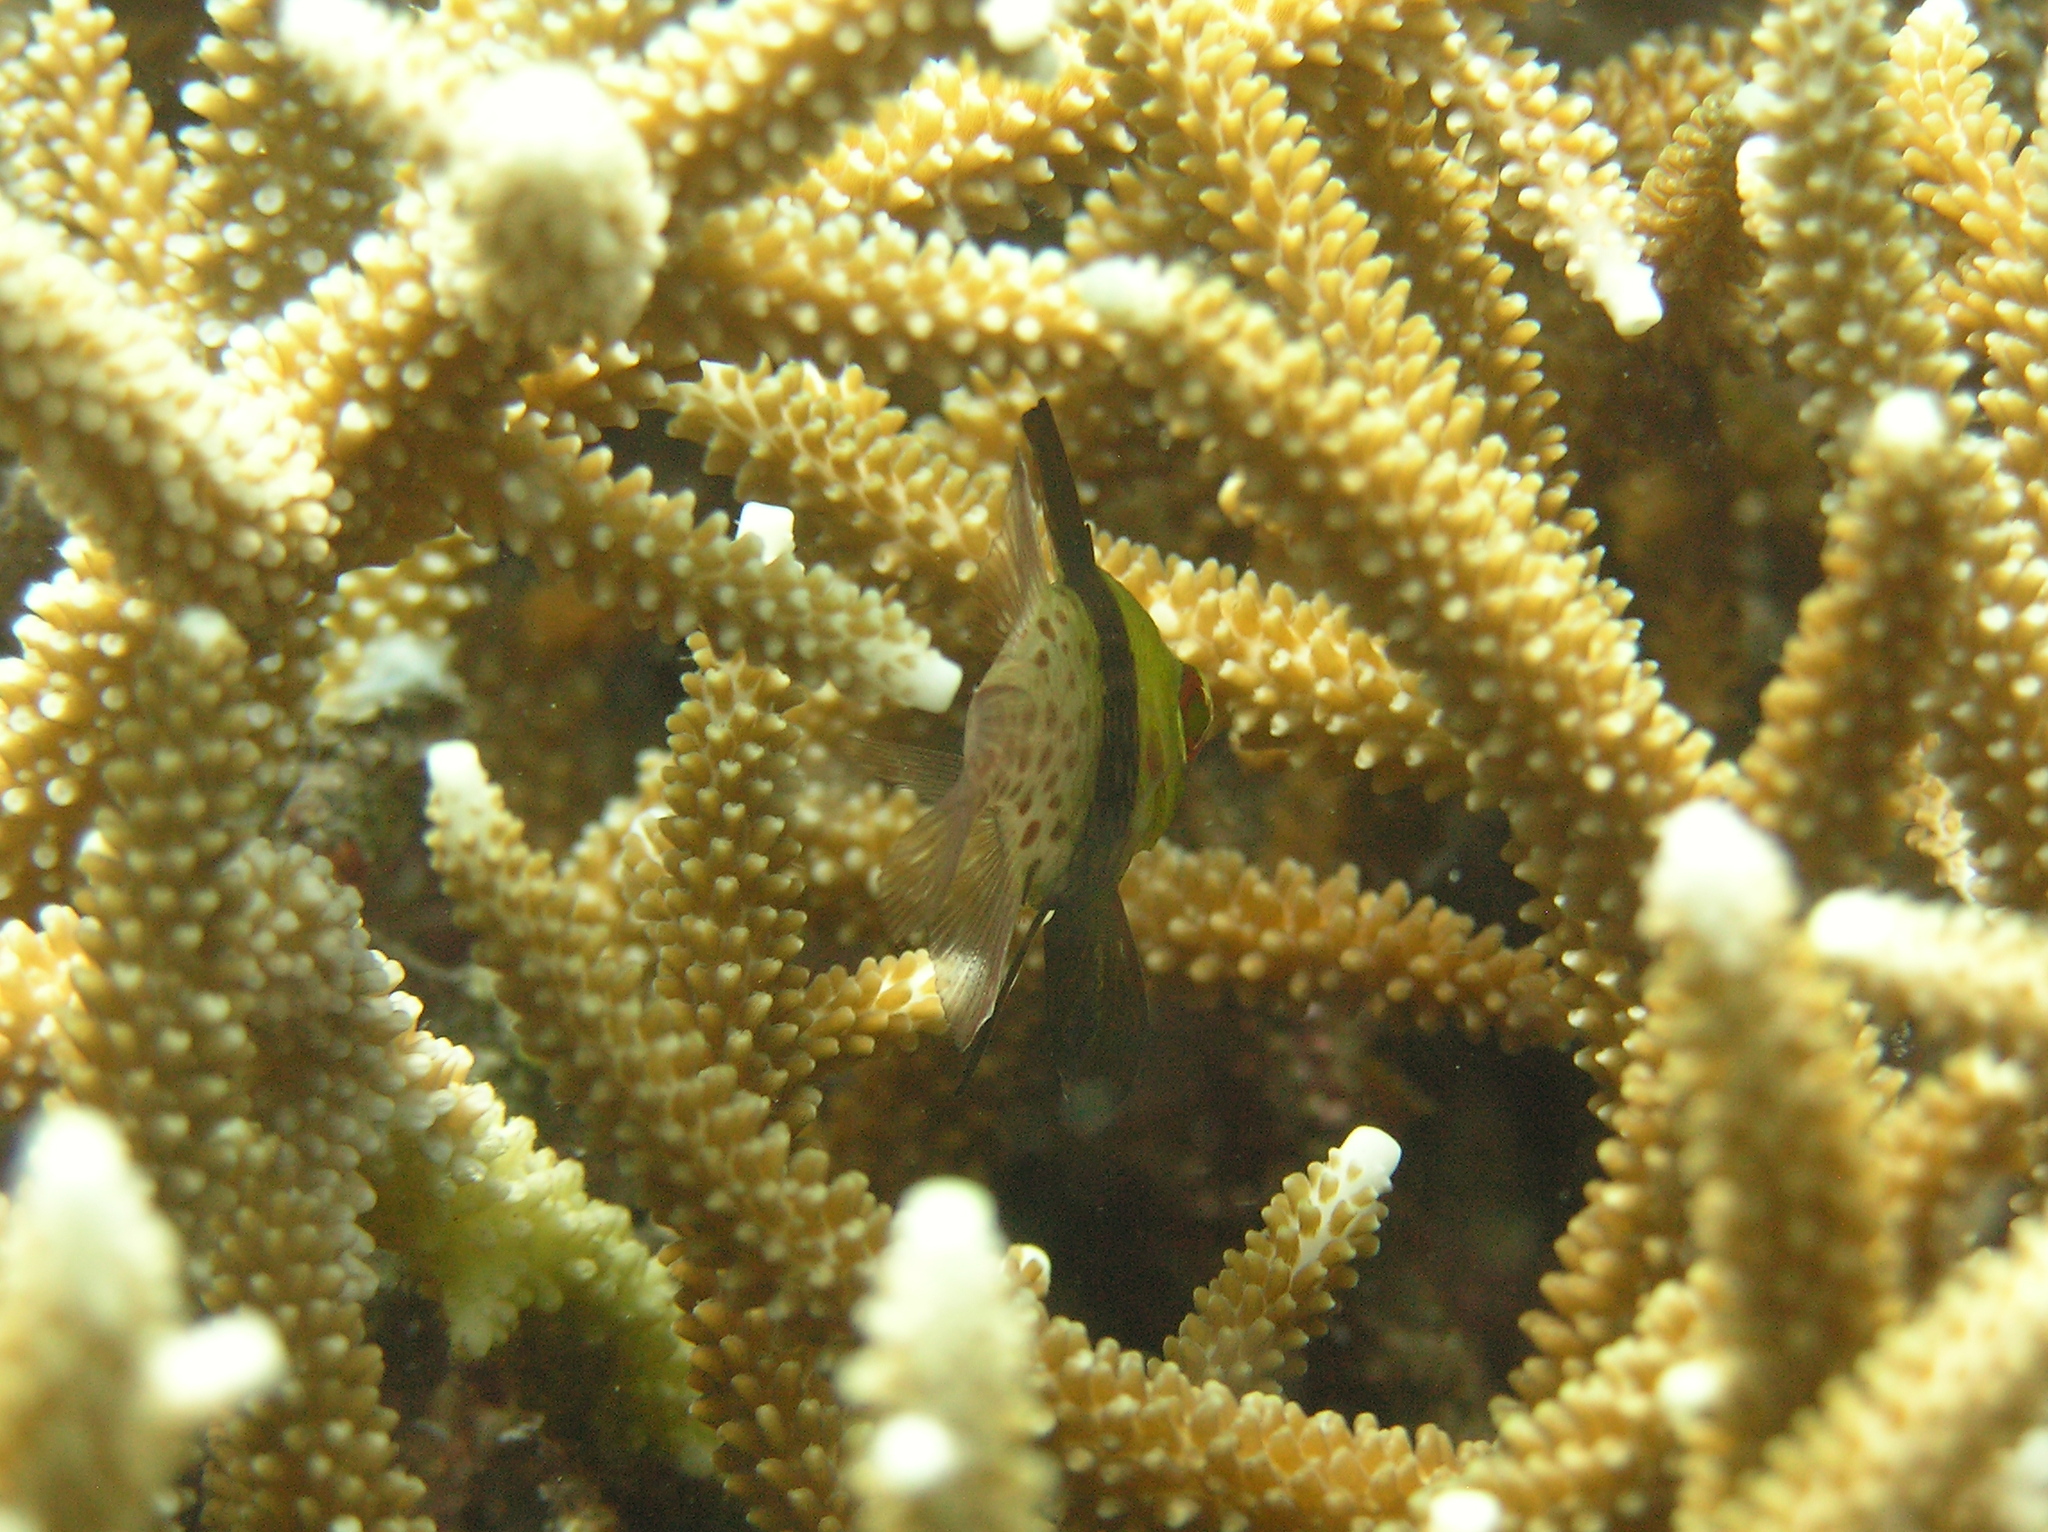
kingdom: Animalia
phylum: Chordata
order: Perciformes
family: Apogonidae
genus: Sphaeramia
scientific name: Sphaeramia nematoptera
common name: Pajama cardinalfish
